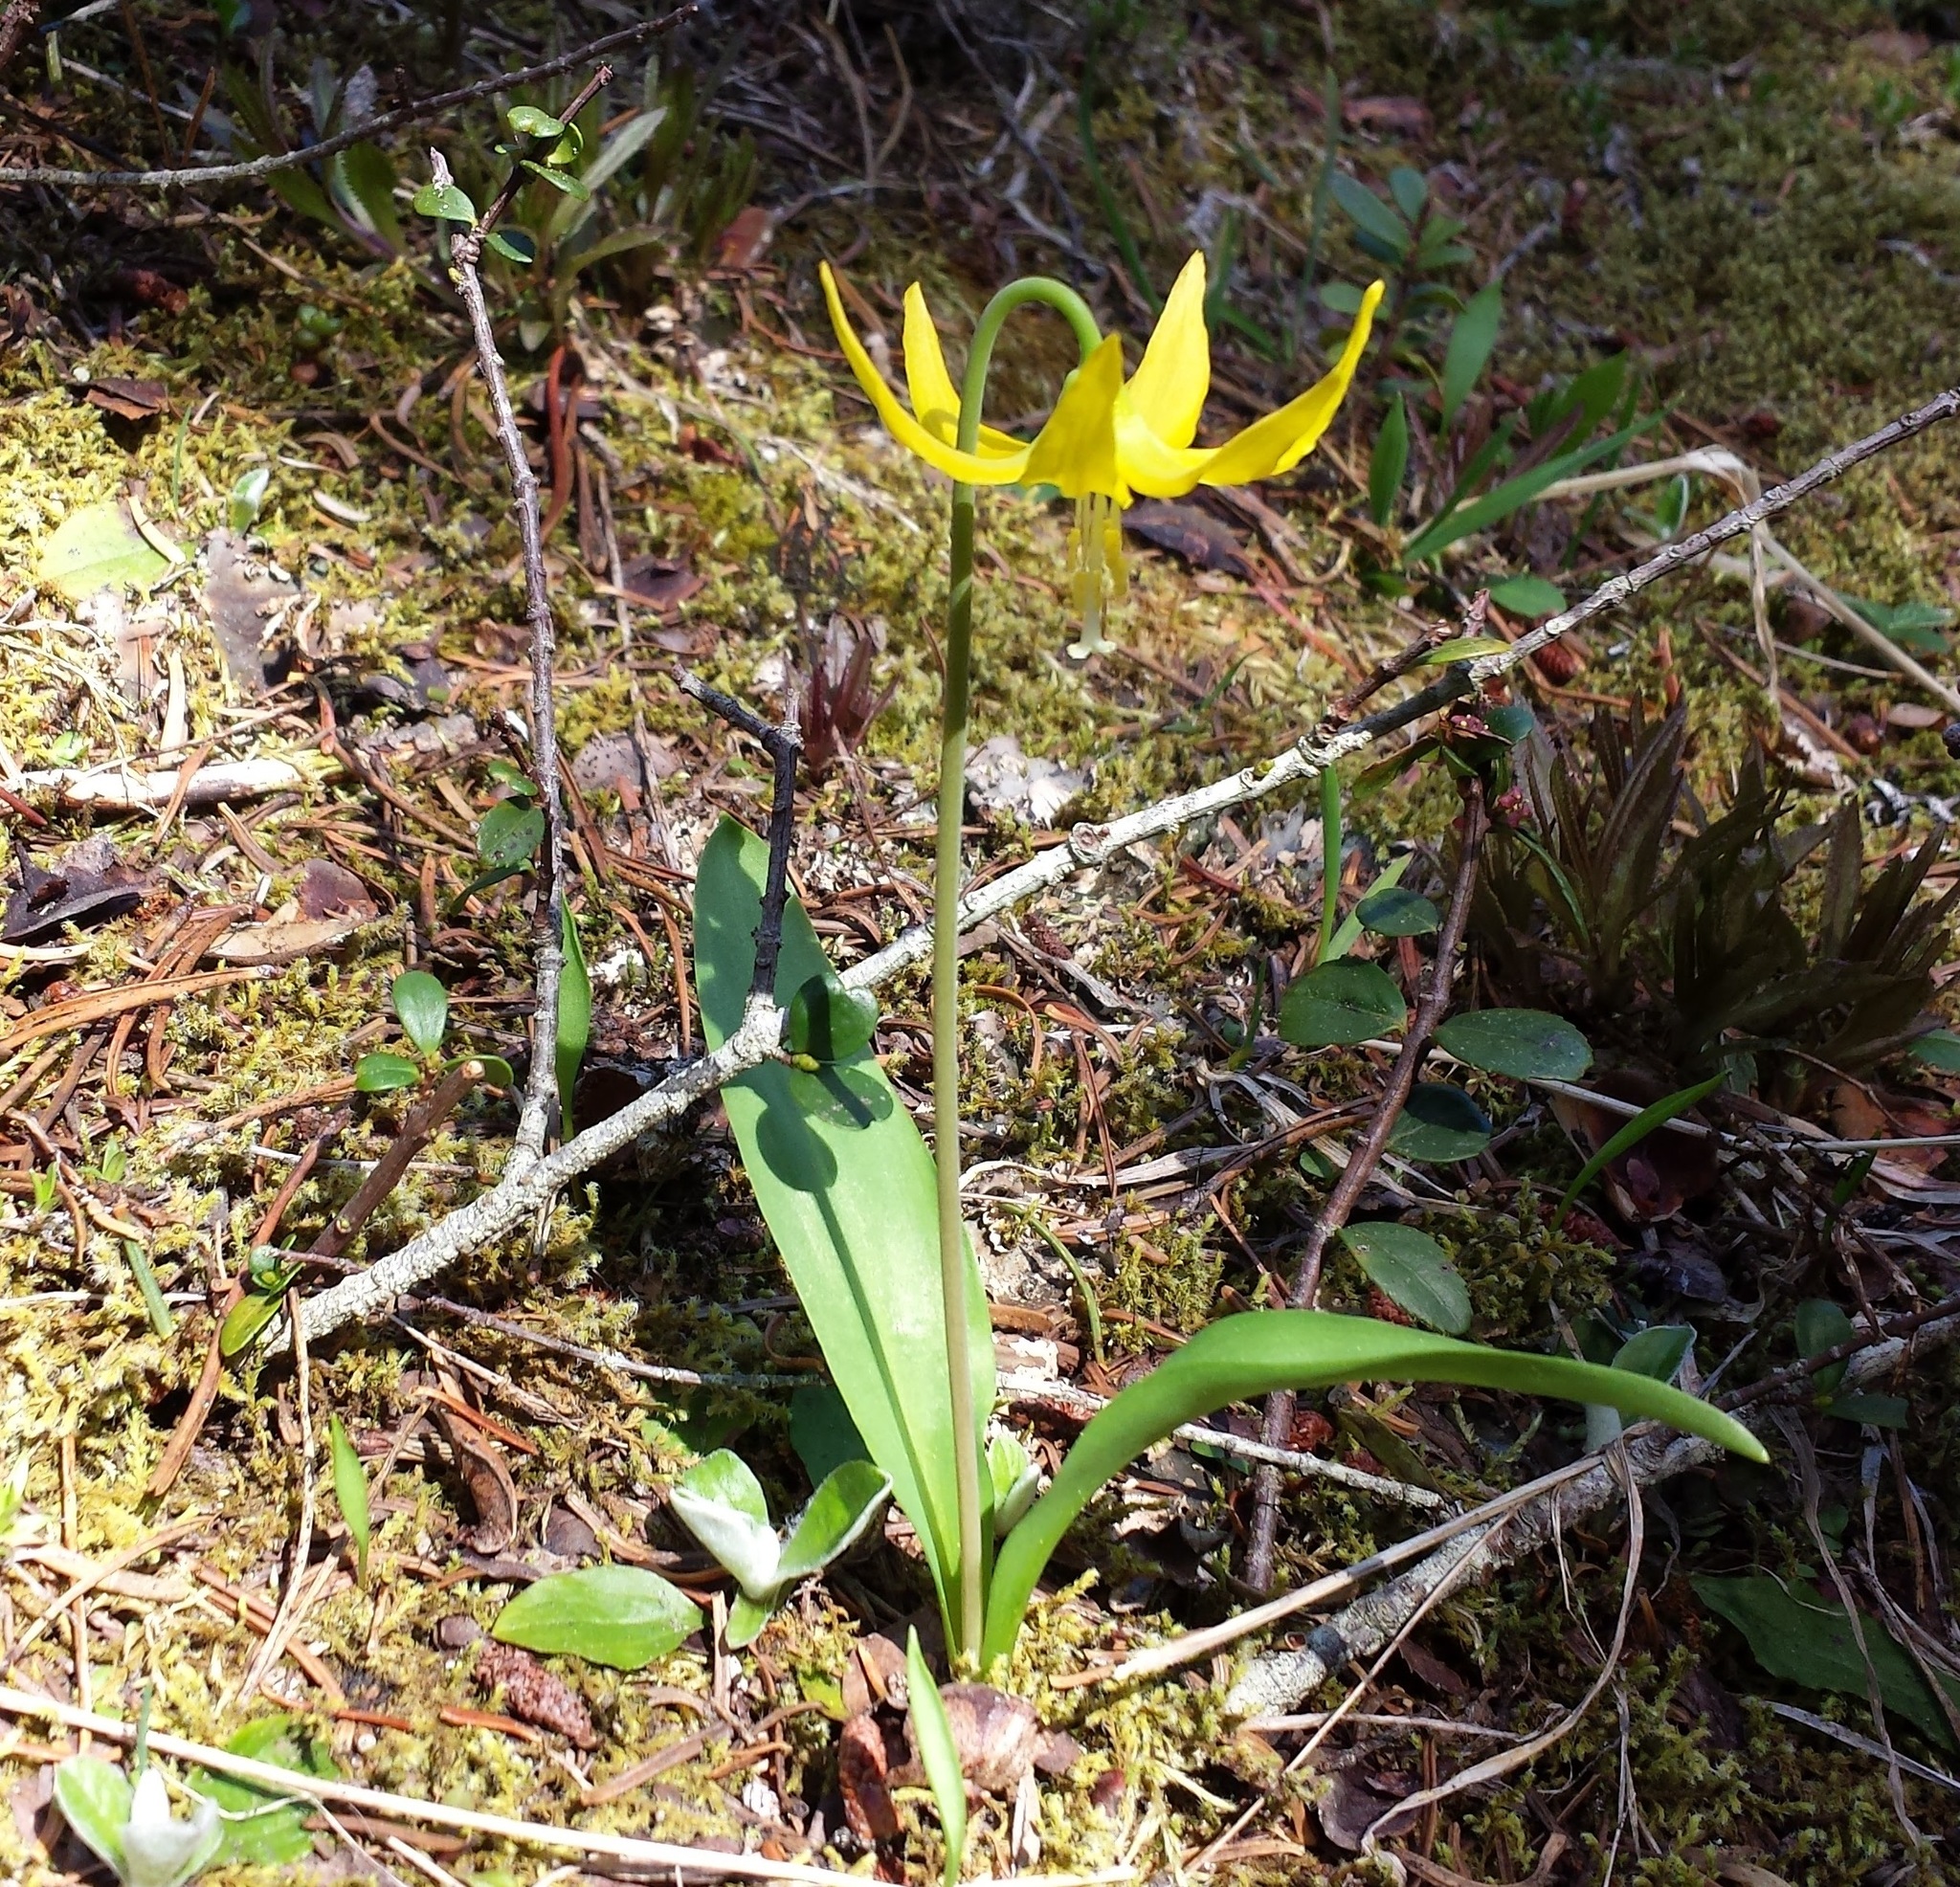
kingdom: Plantae
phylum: Tracheophyta
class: Liliopsida
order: Liliales
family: Liliaceae
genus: Erythronium
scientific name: Erythronium grandiflorum
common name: Avalanche-lily
